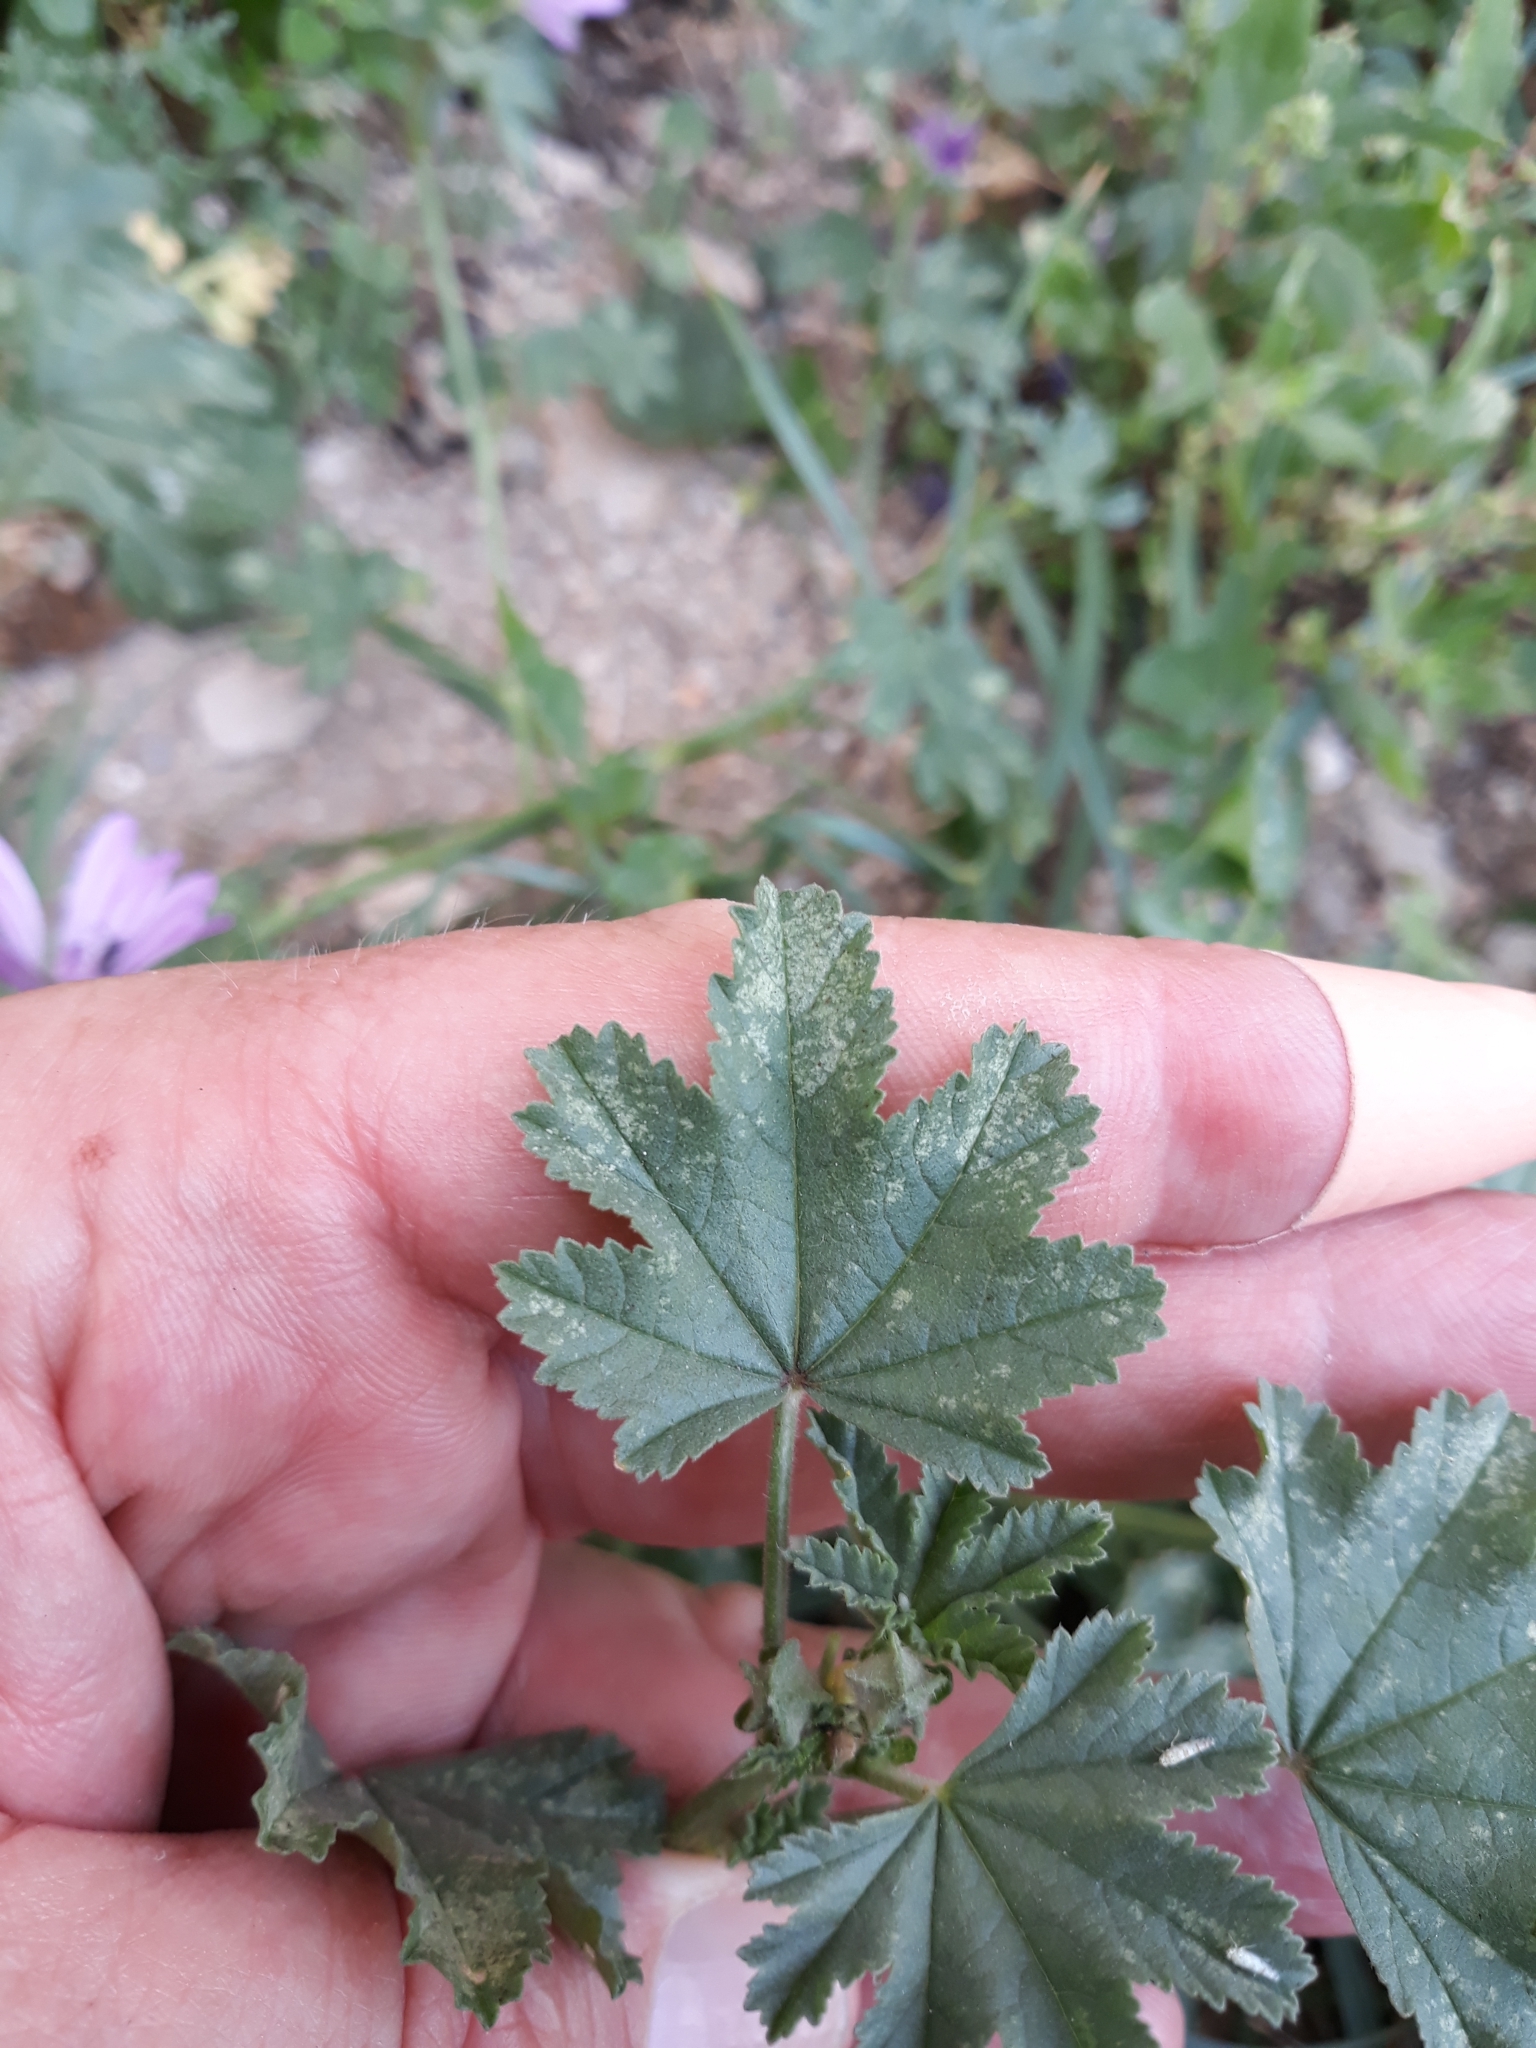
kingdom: Plantae
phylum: Tracheophyta
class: Magnoliopsida
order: Malvales
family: Malvaceae
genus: Malva
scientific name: Malva sylvestris
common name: Common mallow
